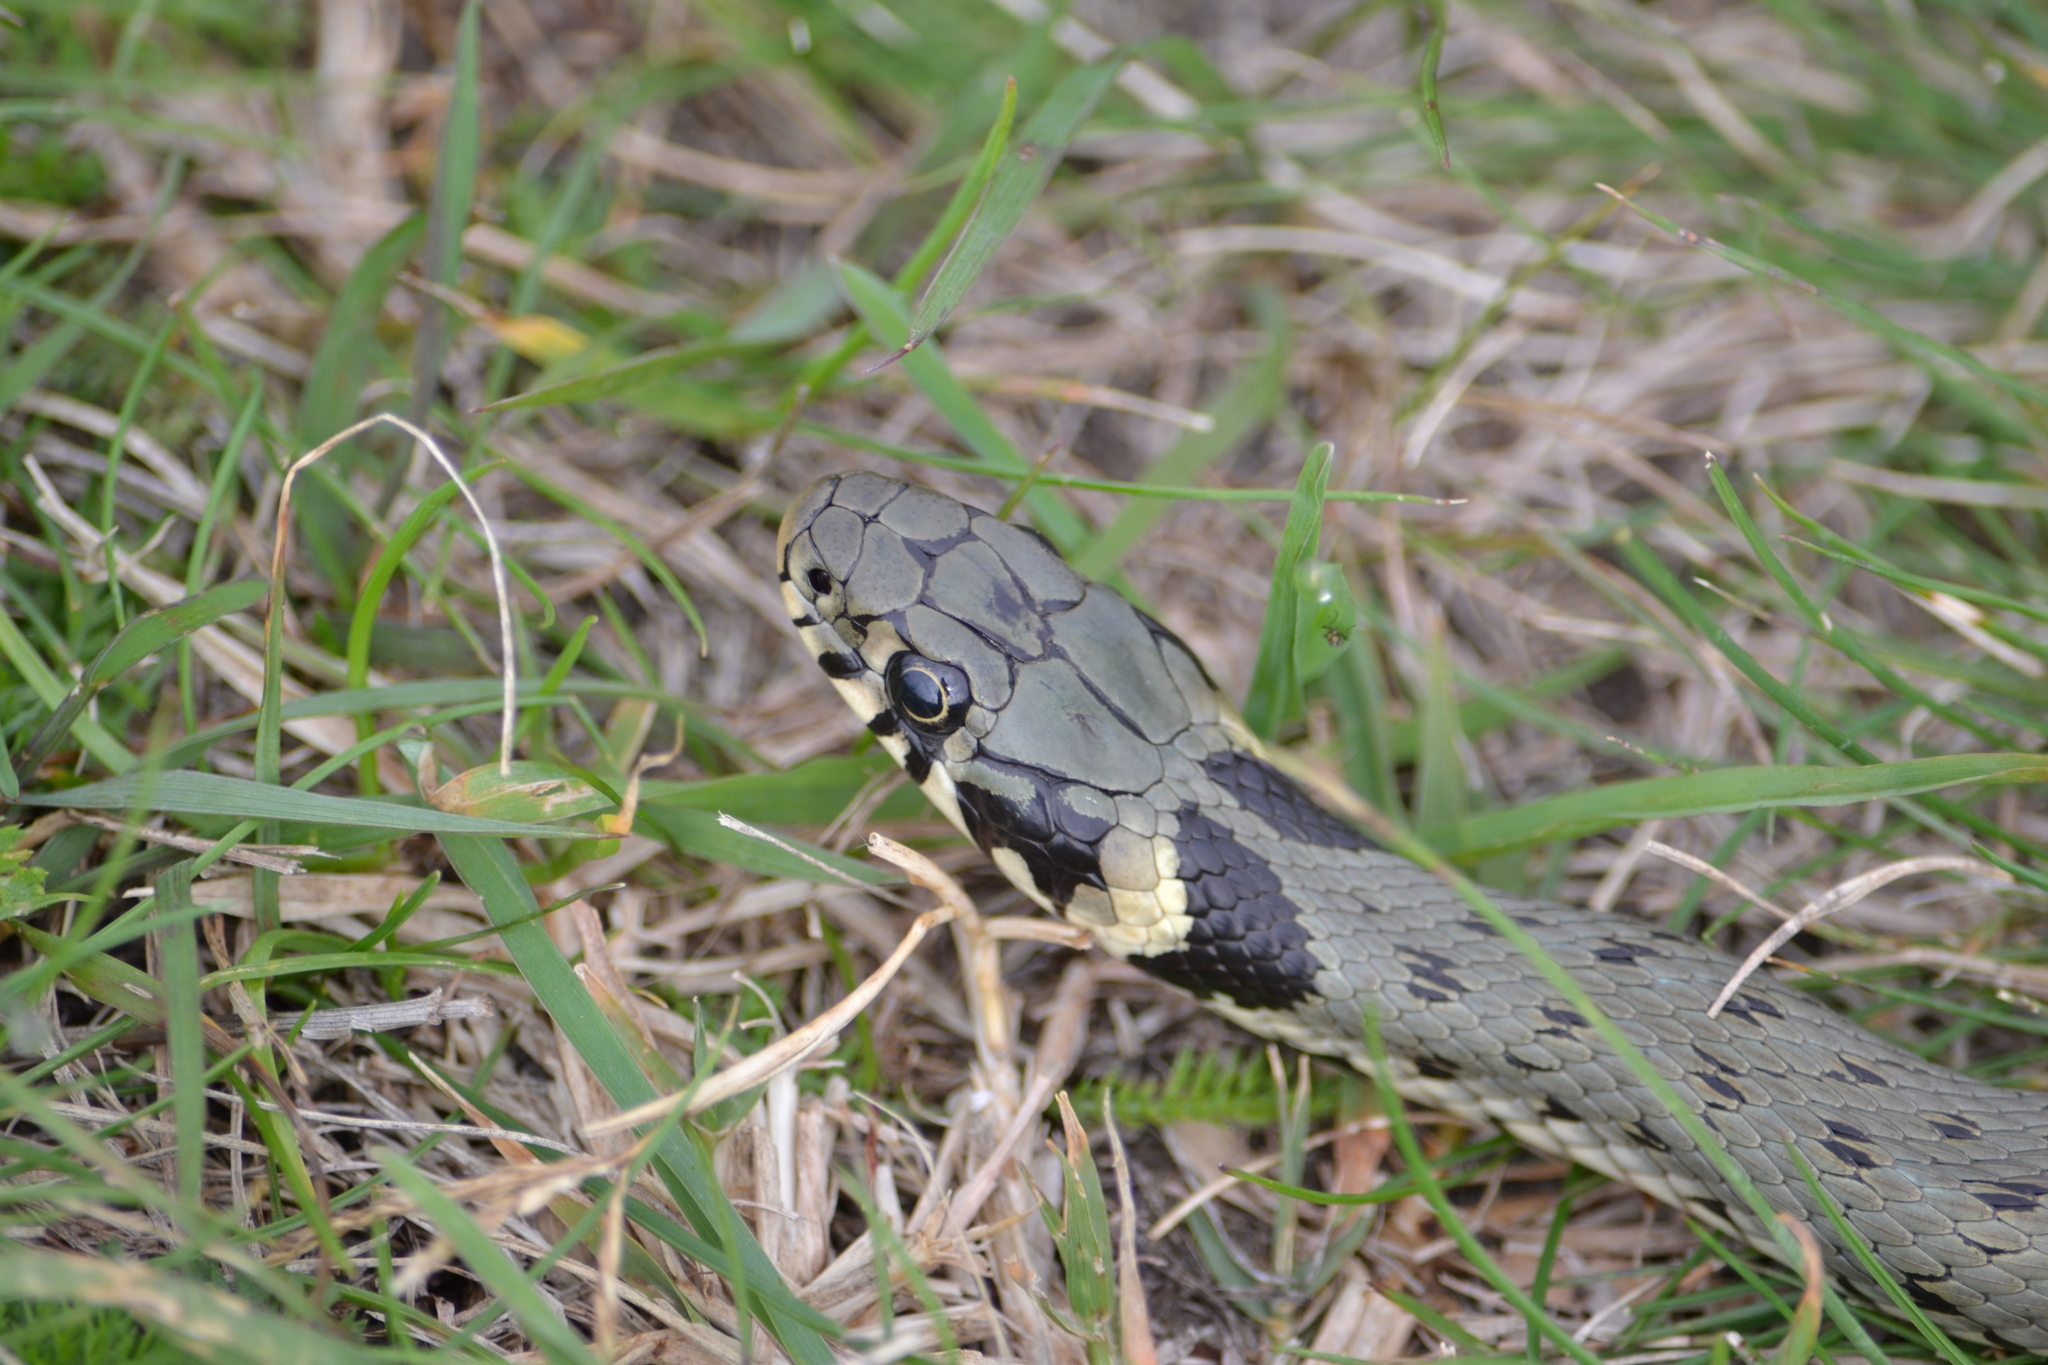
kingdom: Animalia
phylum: Chordata
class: Squamata
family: Colubridae
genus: Natrix
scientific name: Natrix natrix
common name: Grass snake
